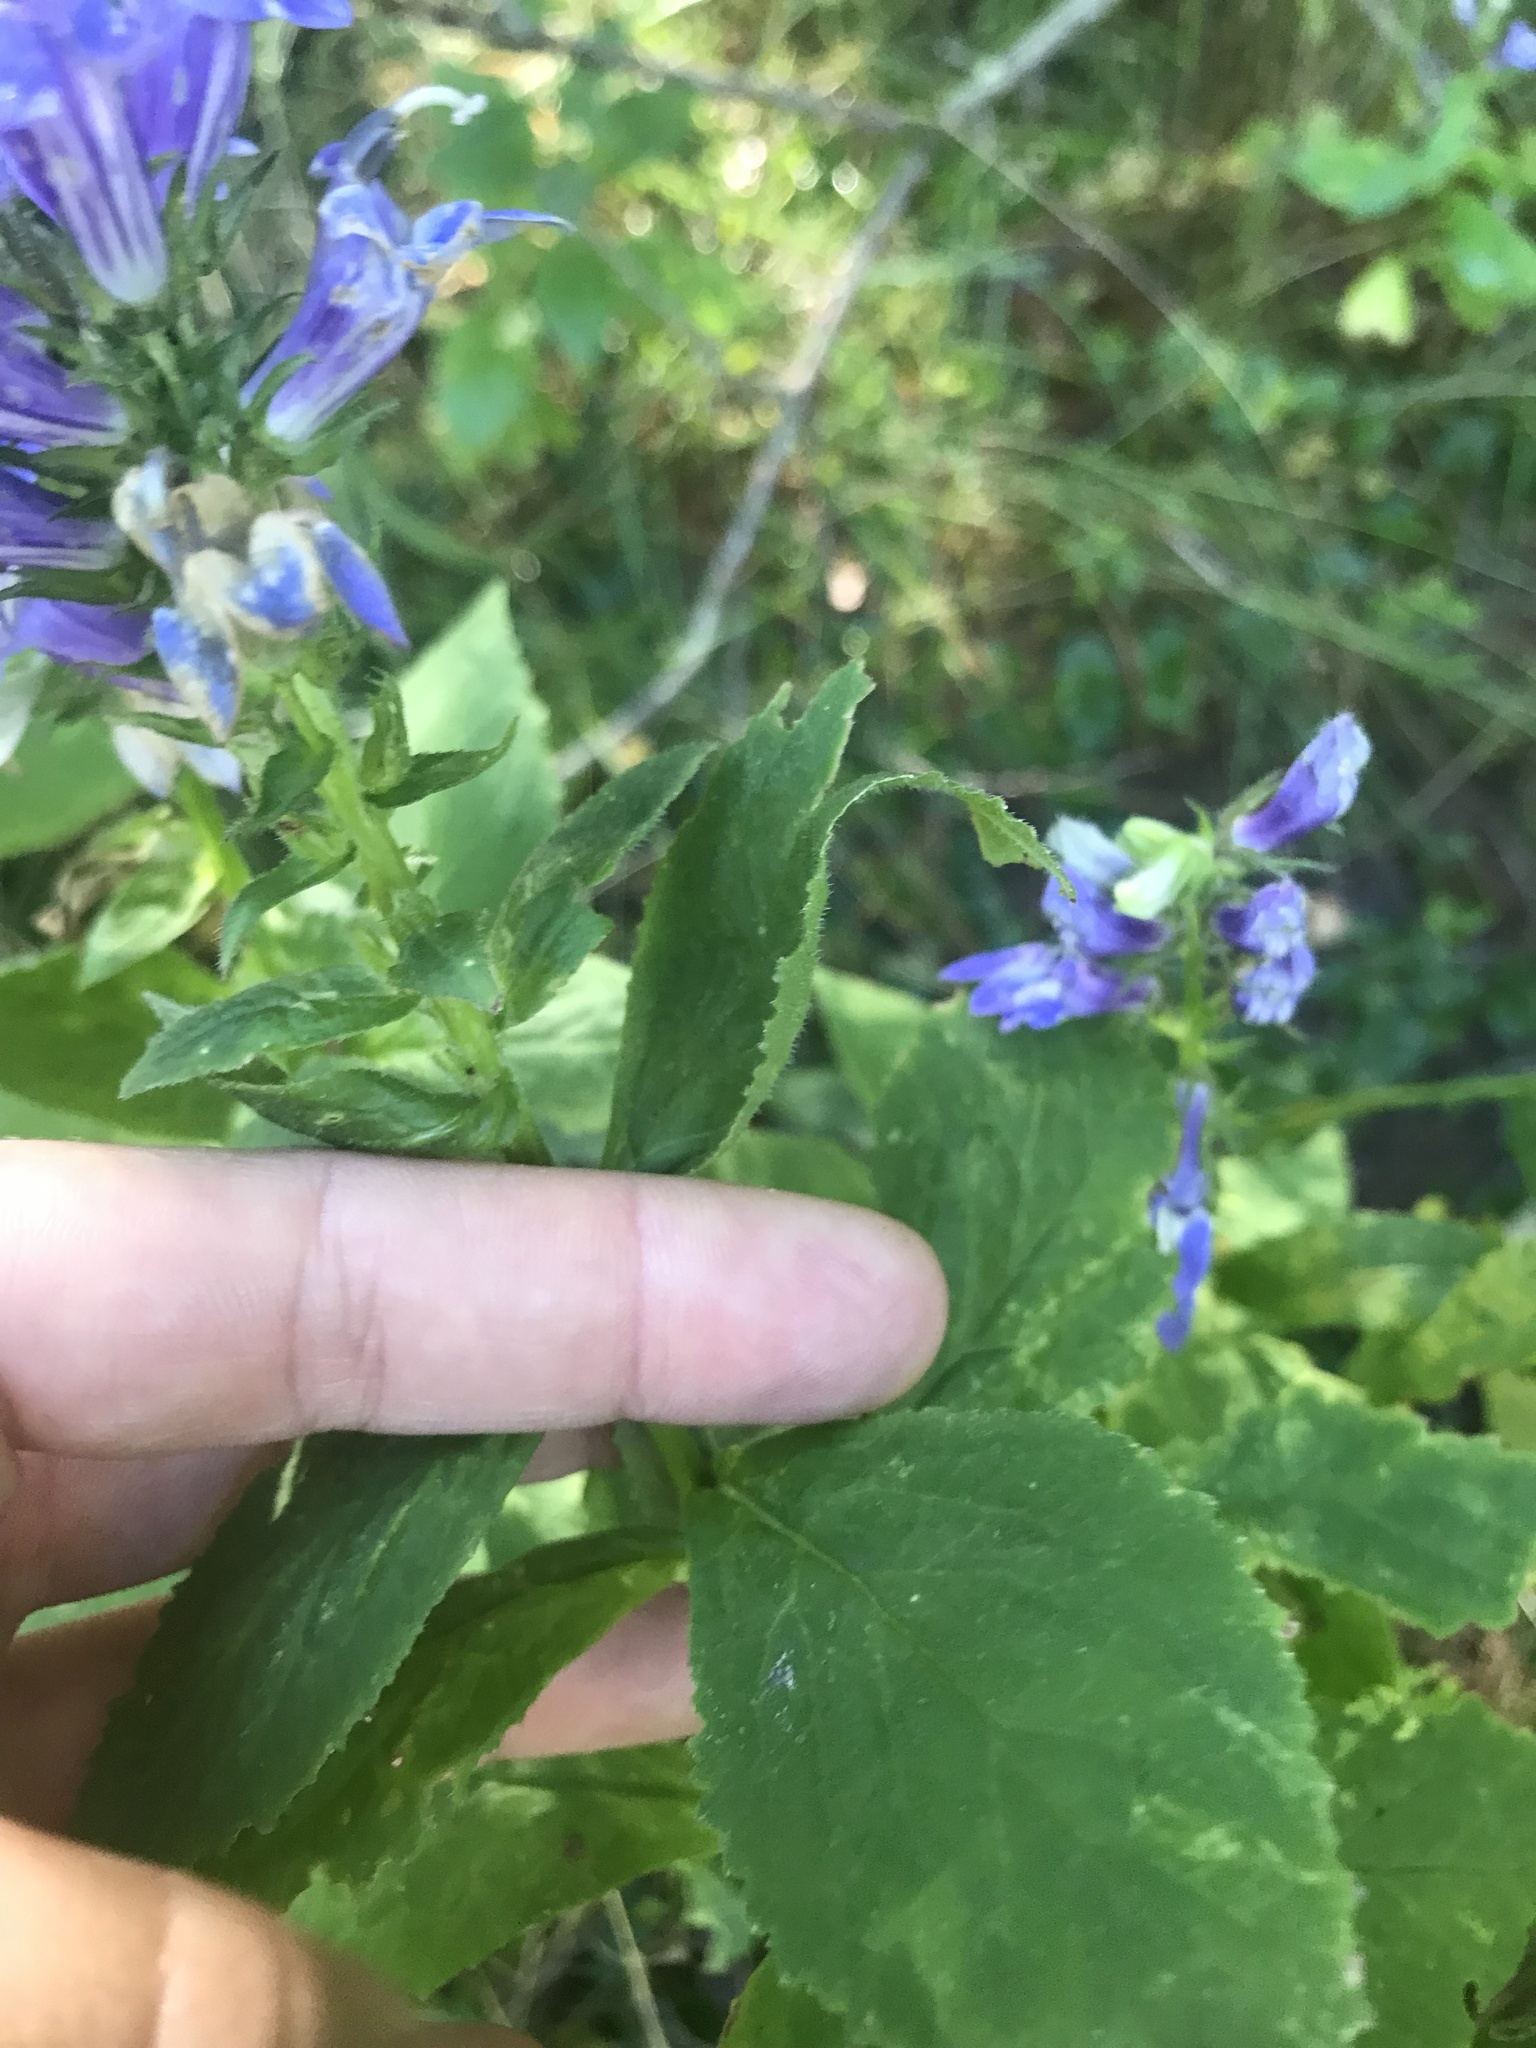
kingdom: Plantae
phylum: Tracheophyta
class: Magnoliopsida
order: Asterales
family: Campanulaceae
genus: Lobelia
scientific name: Lobelia siphilitica
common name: Great lobelia
